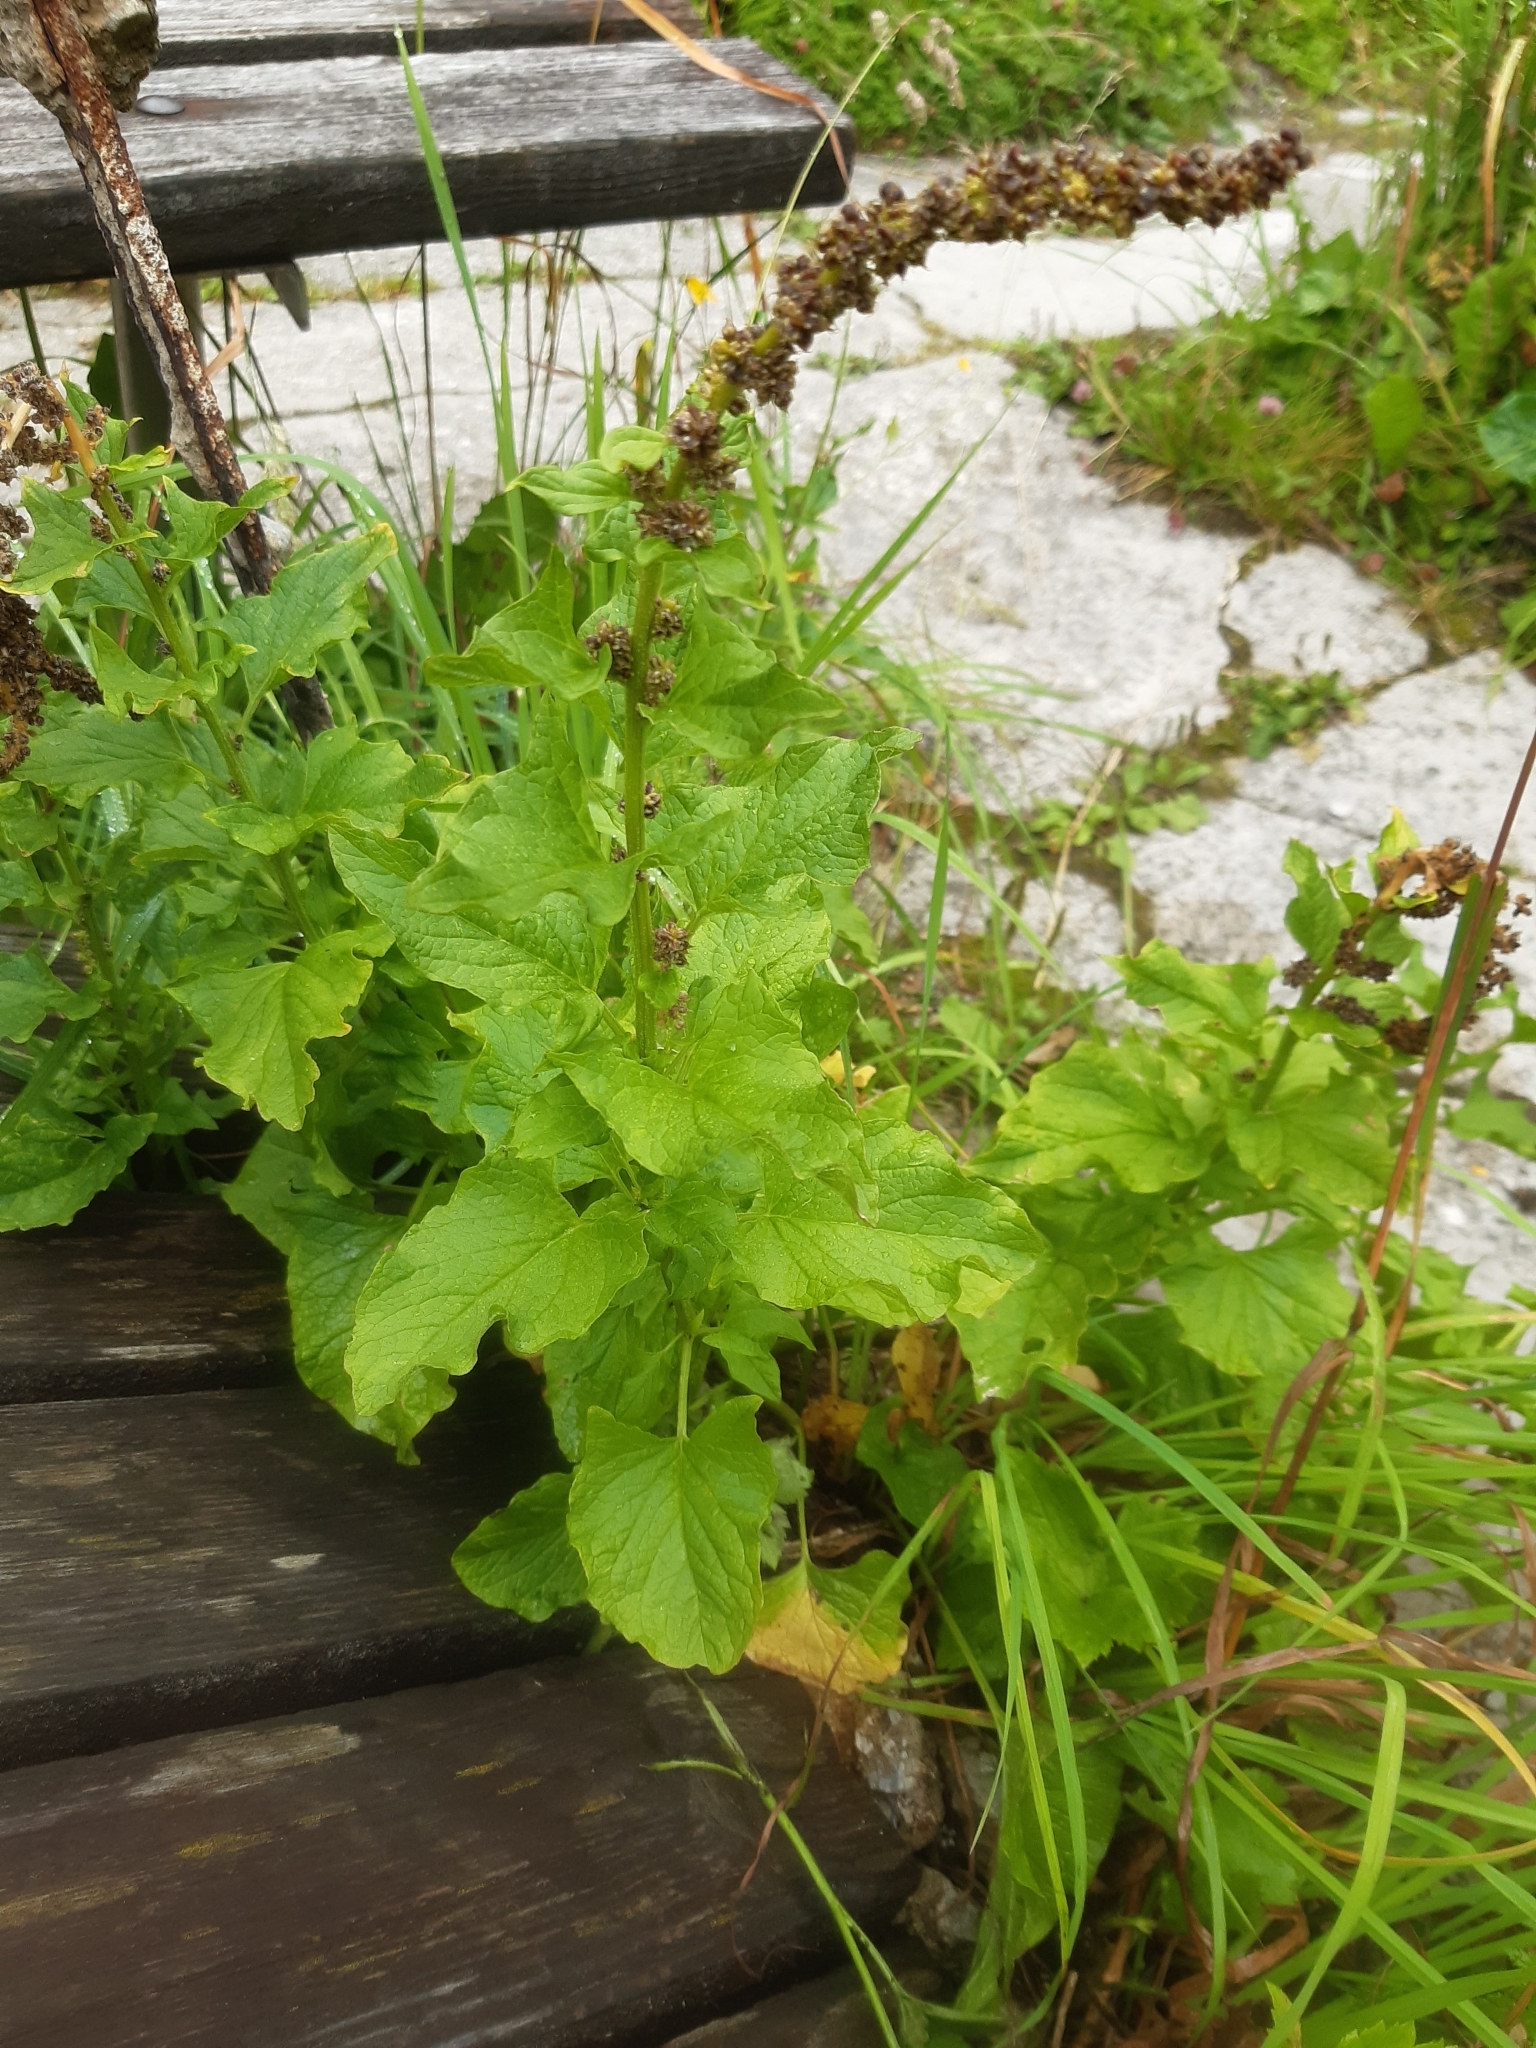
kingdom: Plantae
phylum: Tracheophyta
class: Magnoliopsida
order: Caryophyllales
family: Amaranthaceae
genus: Blitum
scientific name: Blitum bonus-henricus
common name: Good king henry
